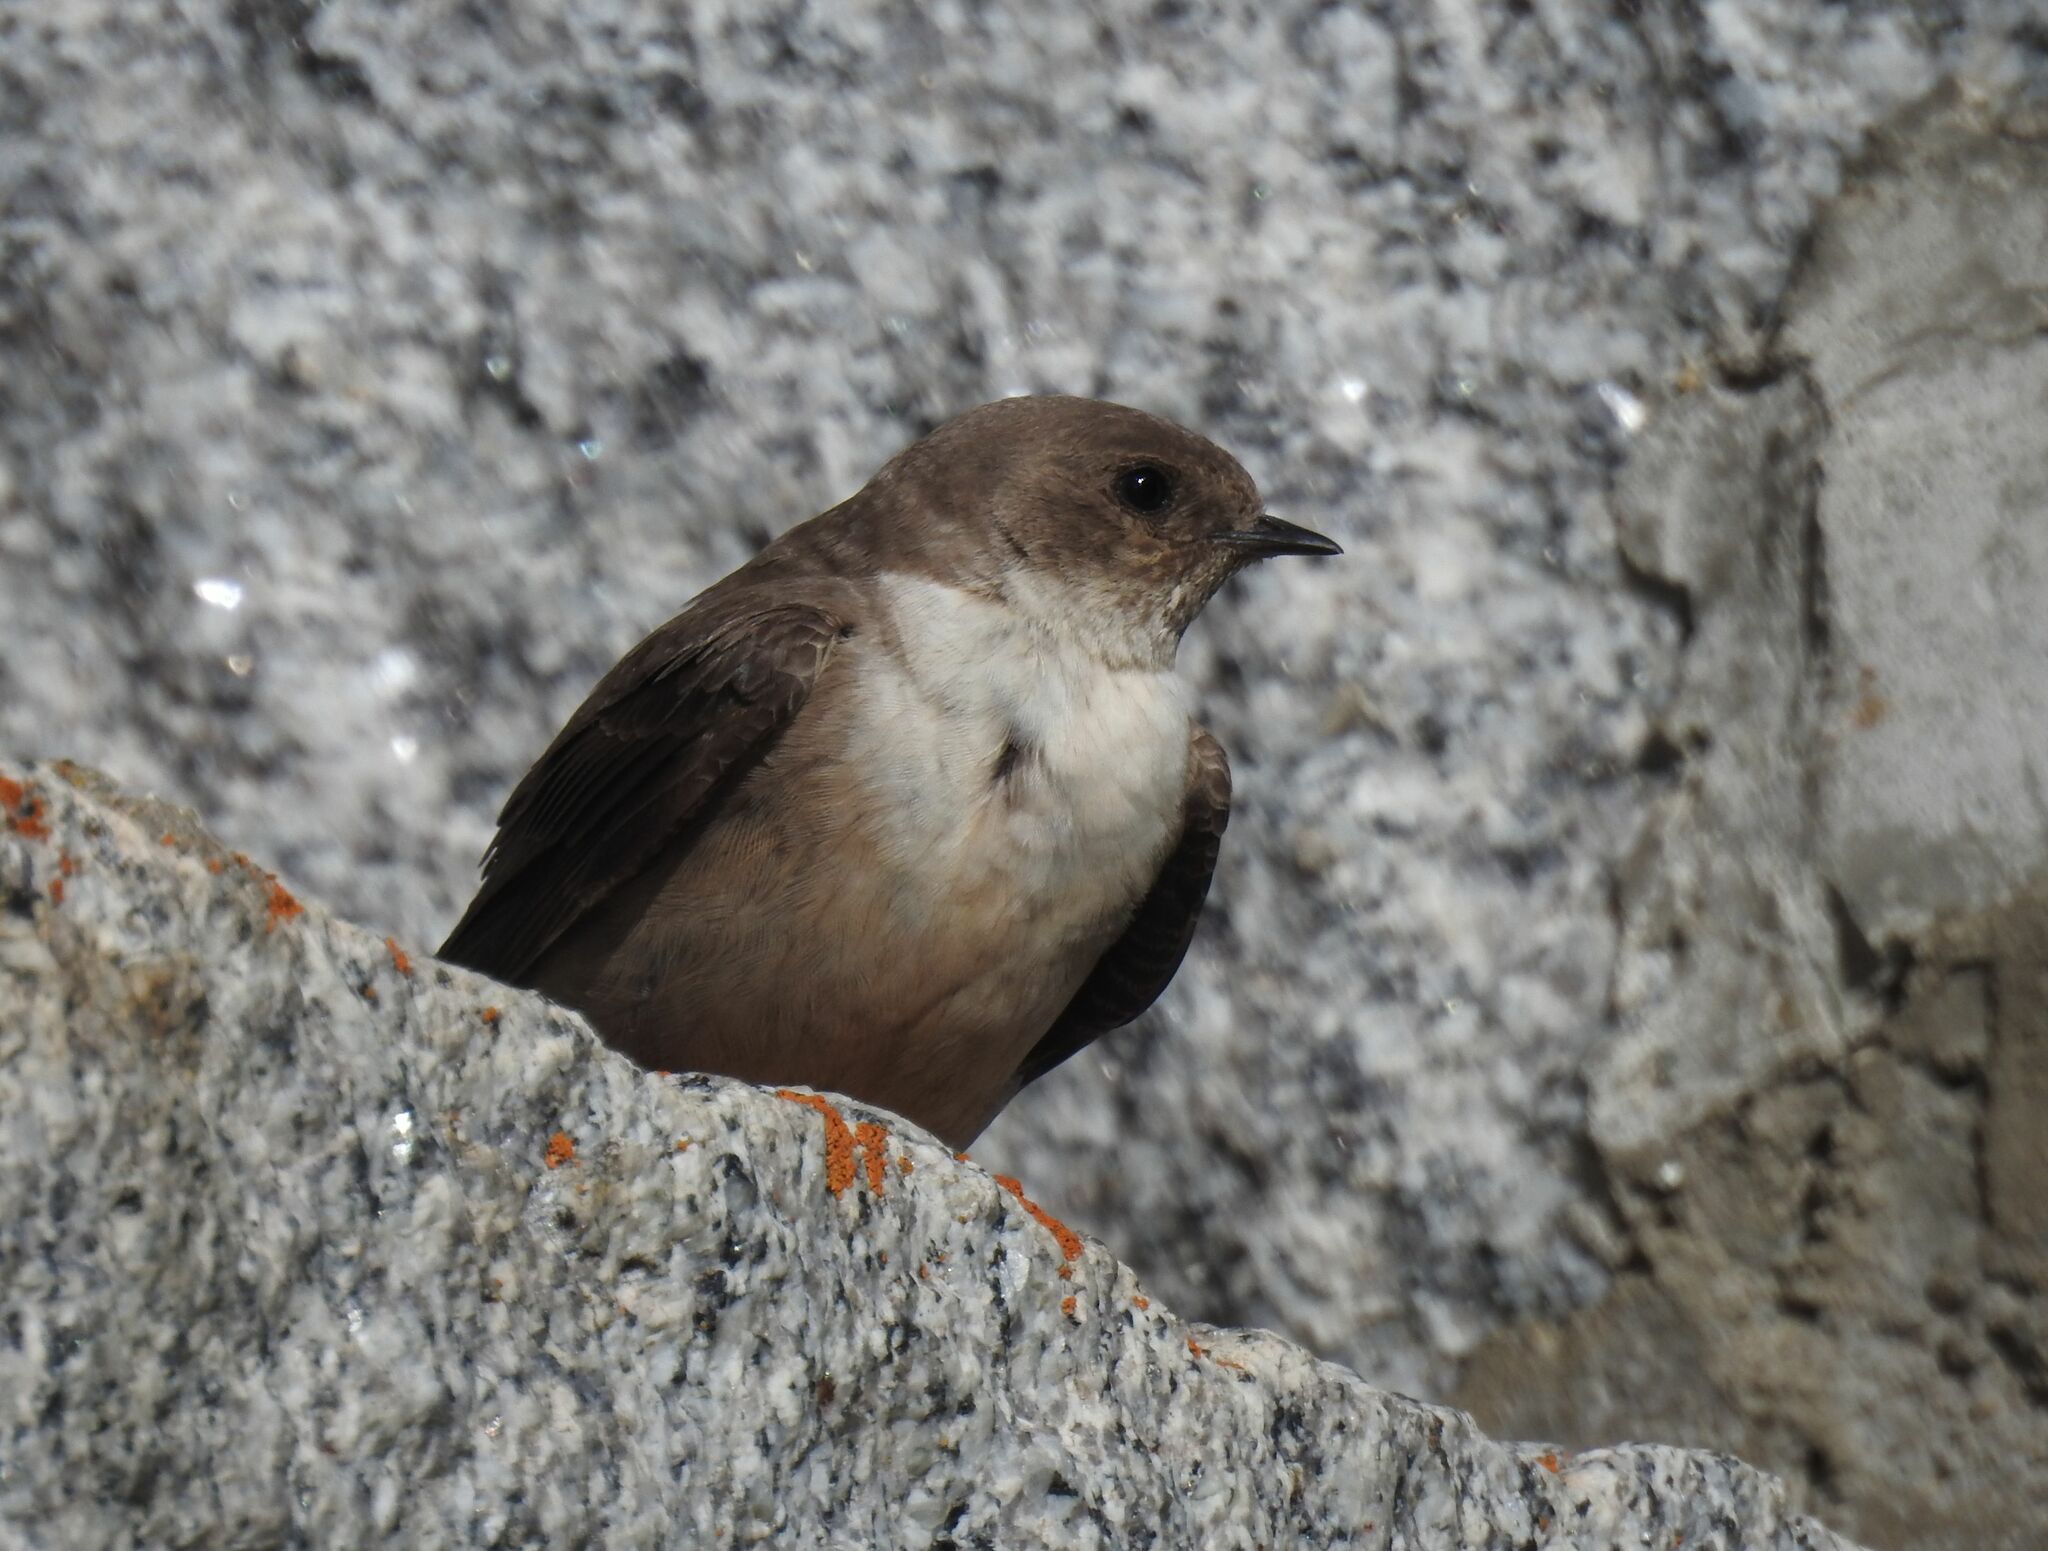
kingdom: Animalia
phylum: Chordata
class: Aves
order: Passeriformes
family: Hirundinidae
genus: Ptyonoprogne
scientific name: Ptyonoprogne rupestris
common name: Eurasian crag martin
